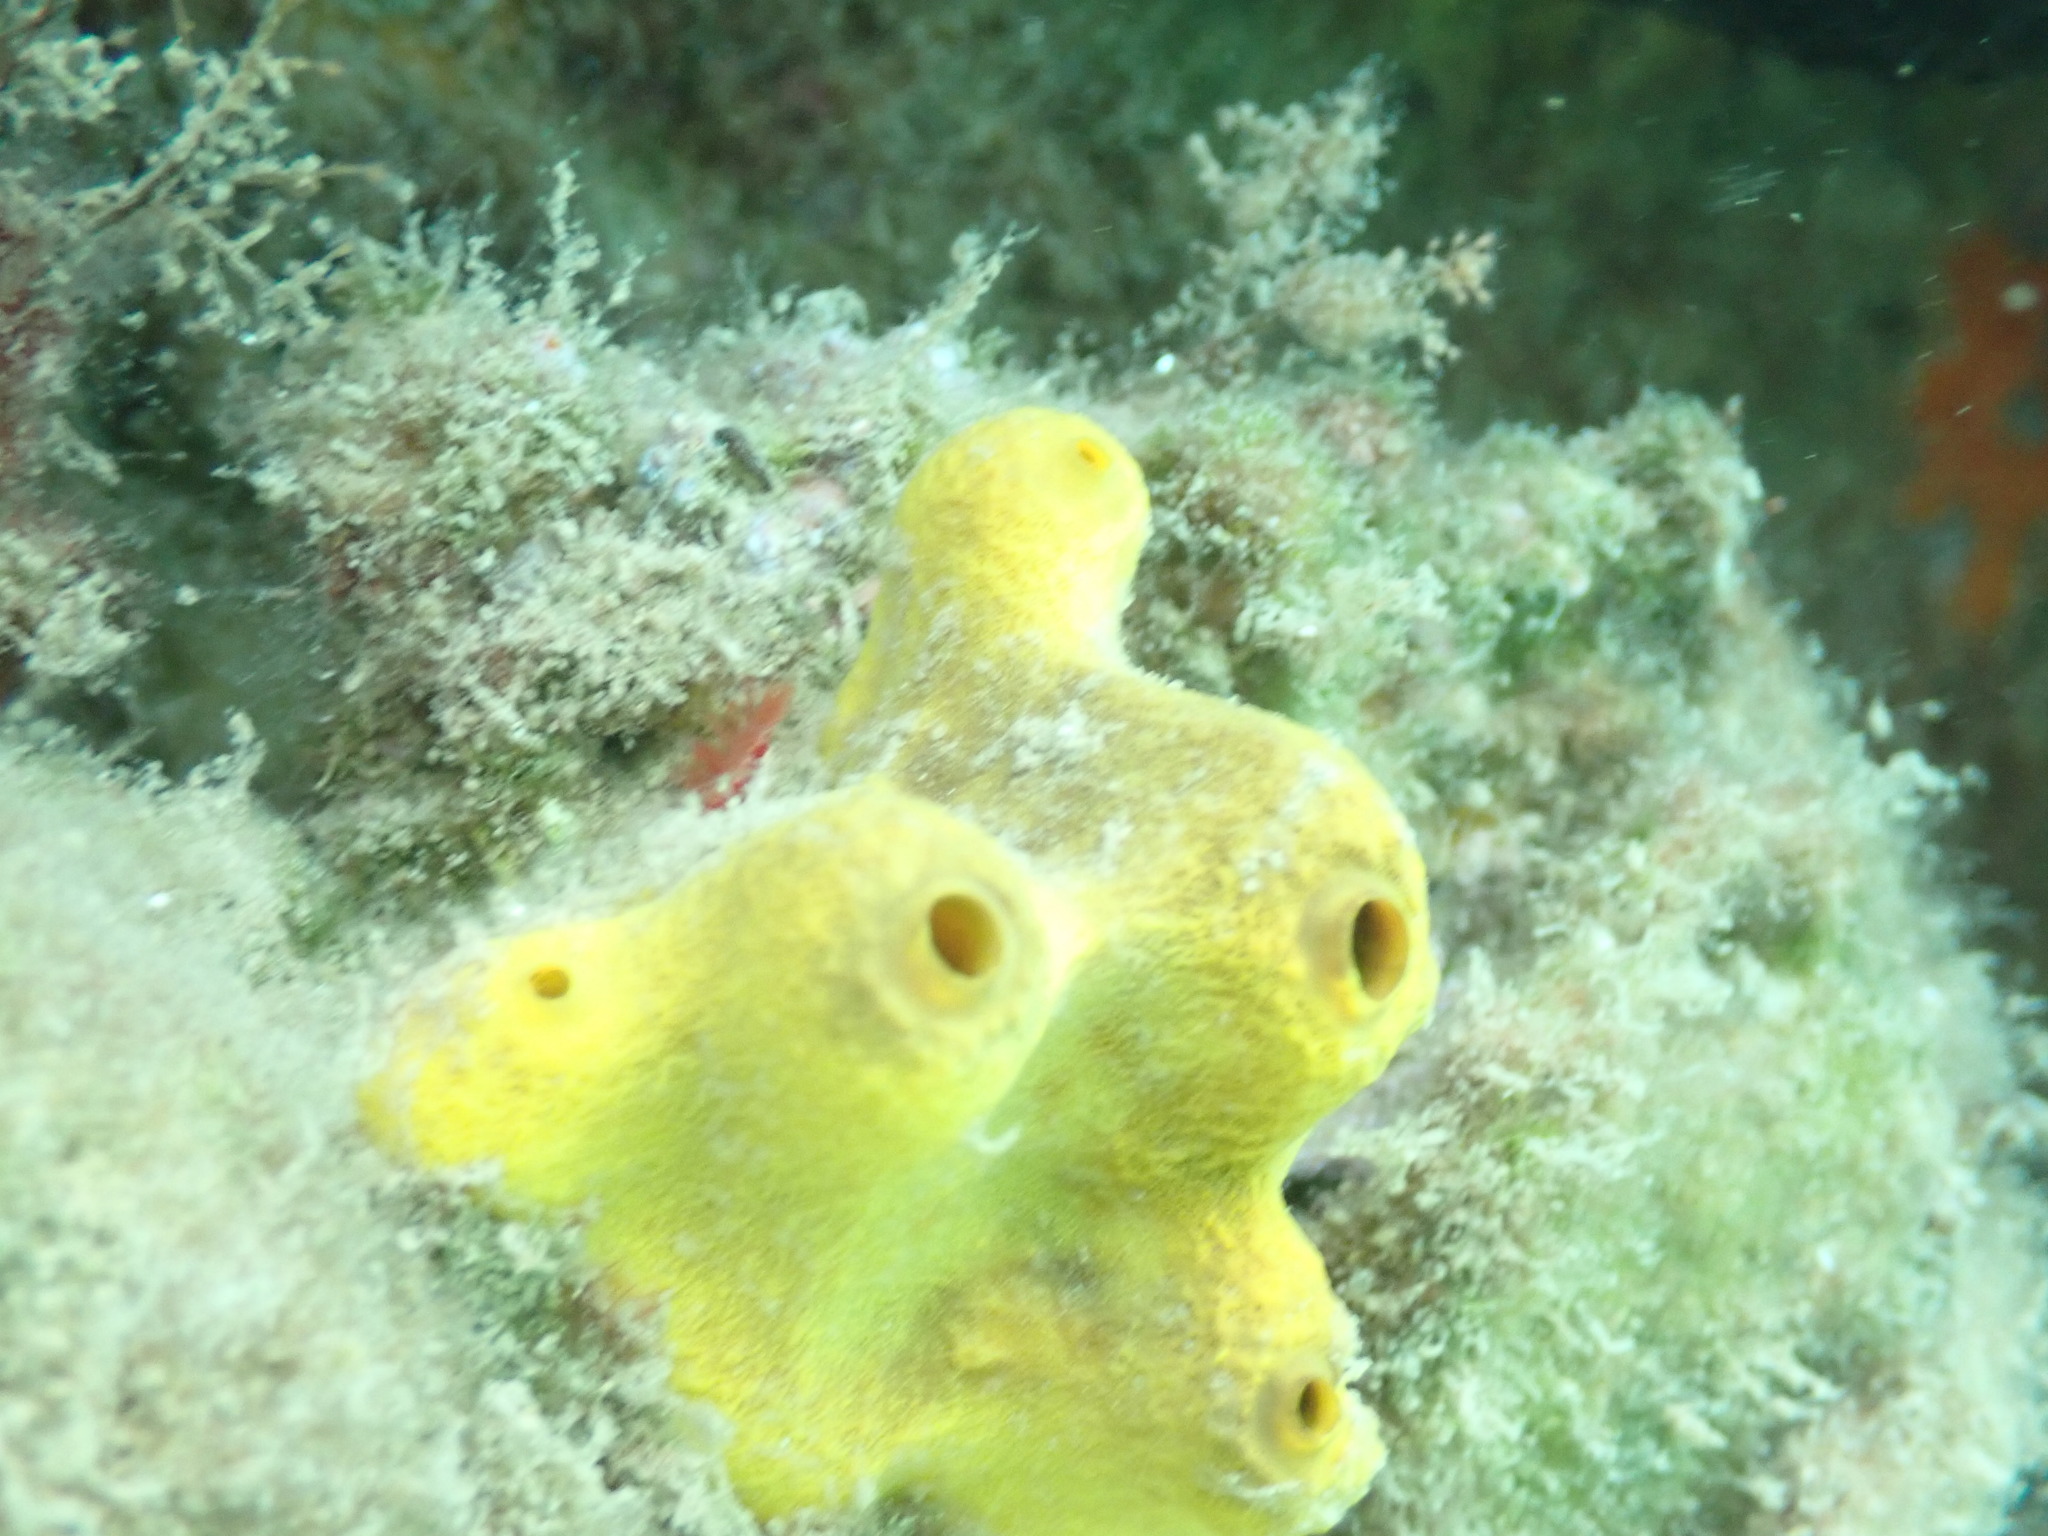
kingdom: Animalia
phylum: Porifera
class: Demospongiae
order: Verongiida
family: Aplysinidae
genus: Aplysina
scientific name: Aplysina aerophoba
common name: Aureate sponge
